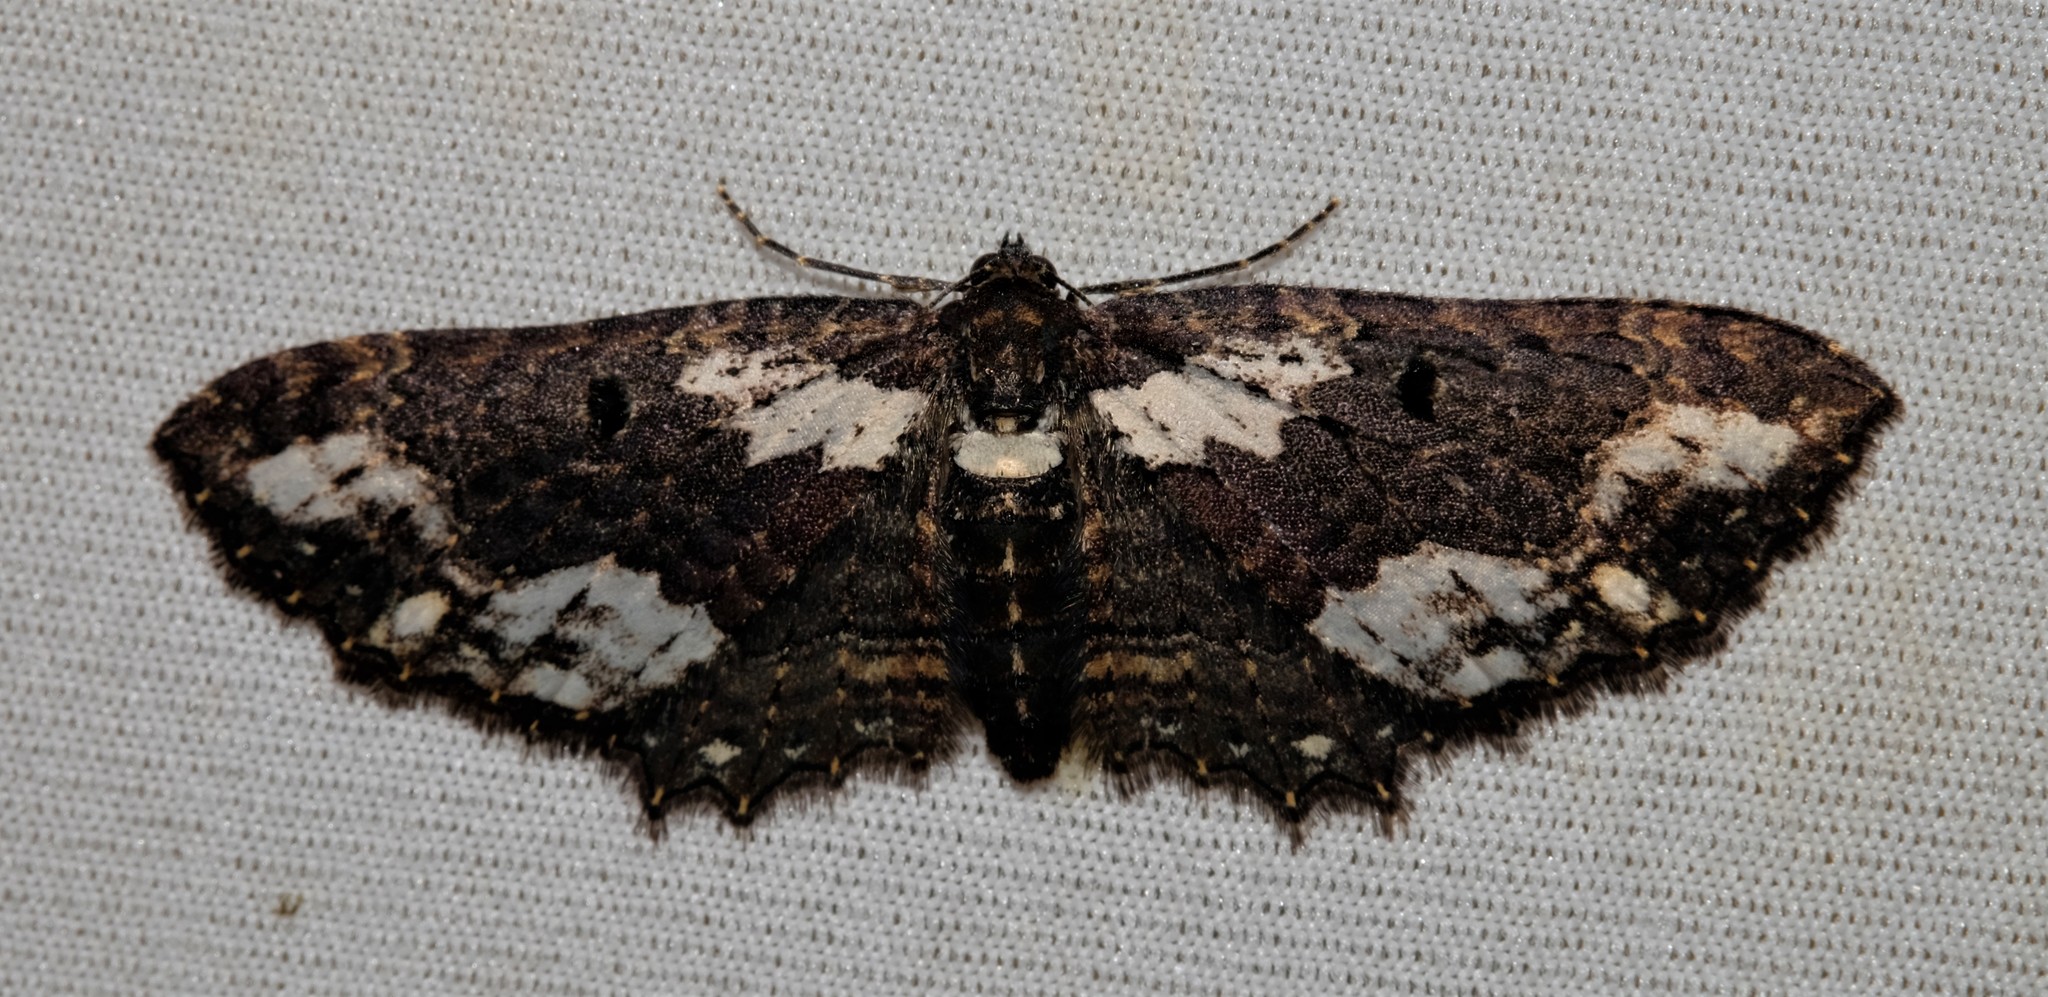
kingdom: Animalia
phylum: Arthropoda
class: Insecta
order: Lepidoptera
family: Geometridae
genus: Eccymatoge
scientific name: Eccymatoge callizona
